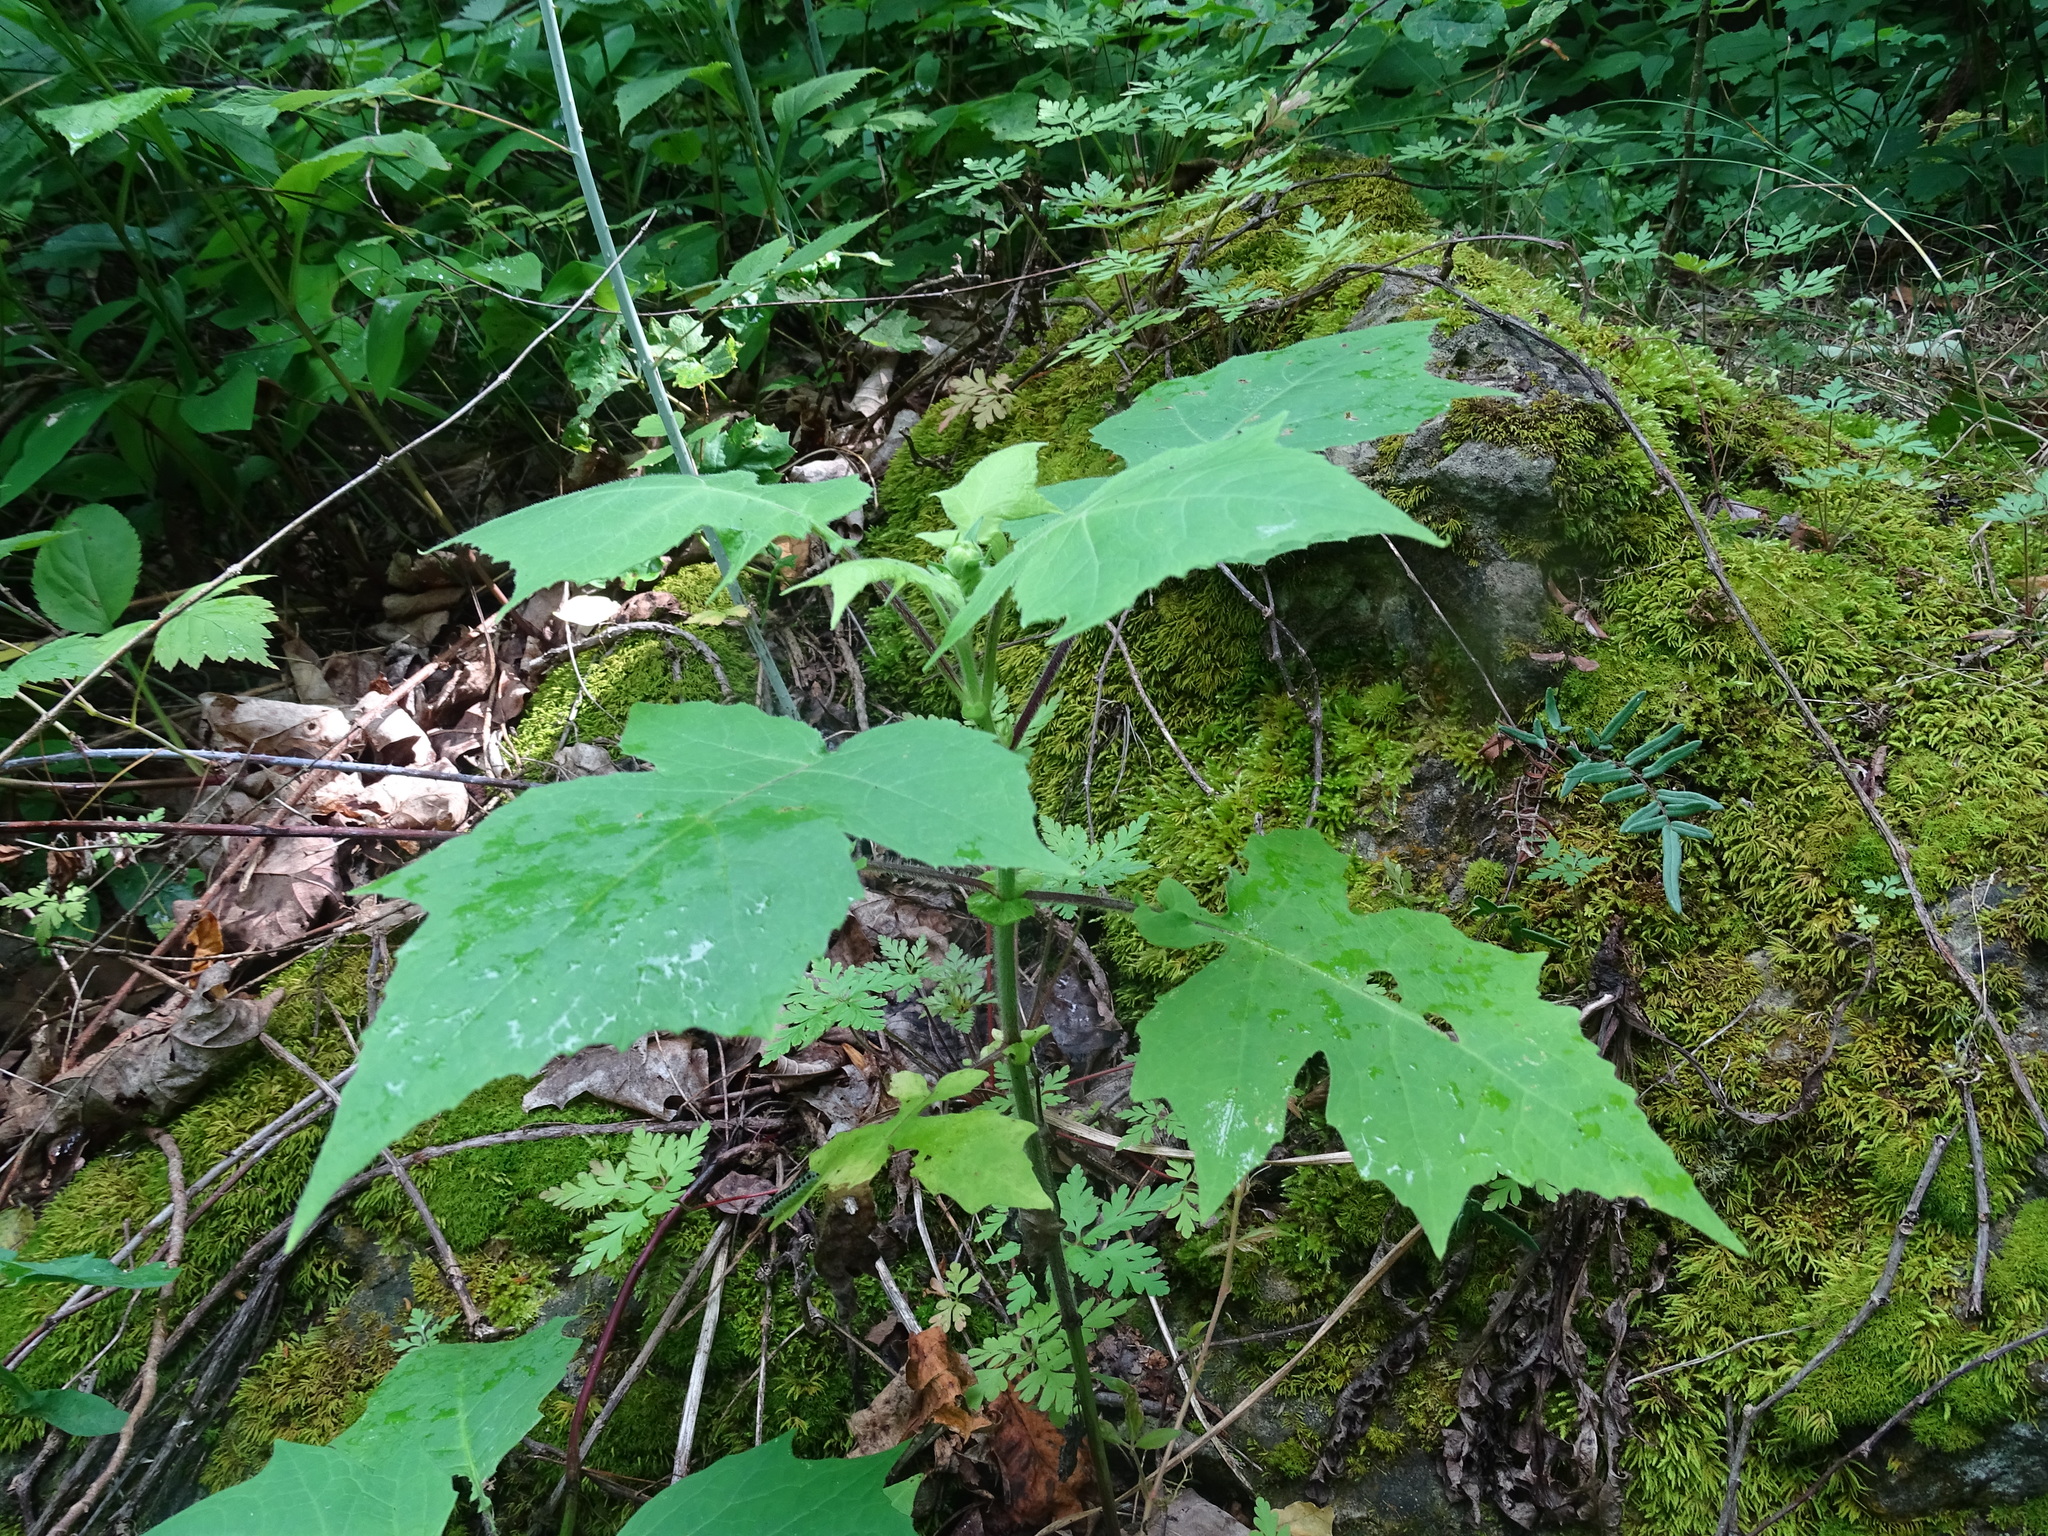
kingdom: Plantae
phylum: Tracheophyta
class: Magnoliopsida
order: Asterales
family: Asteraceae
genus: Polymnia
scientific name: Polymnia canadensis
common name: Pale-flowered leafcup
